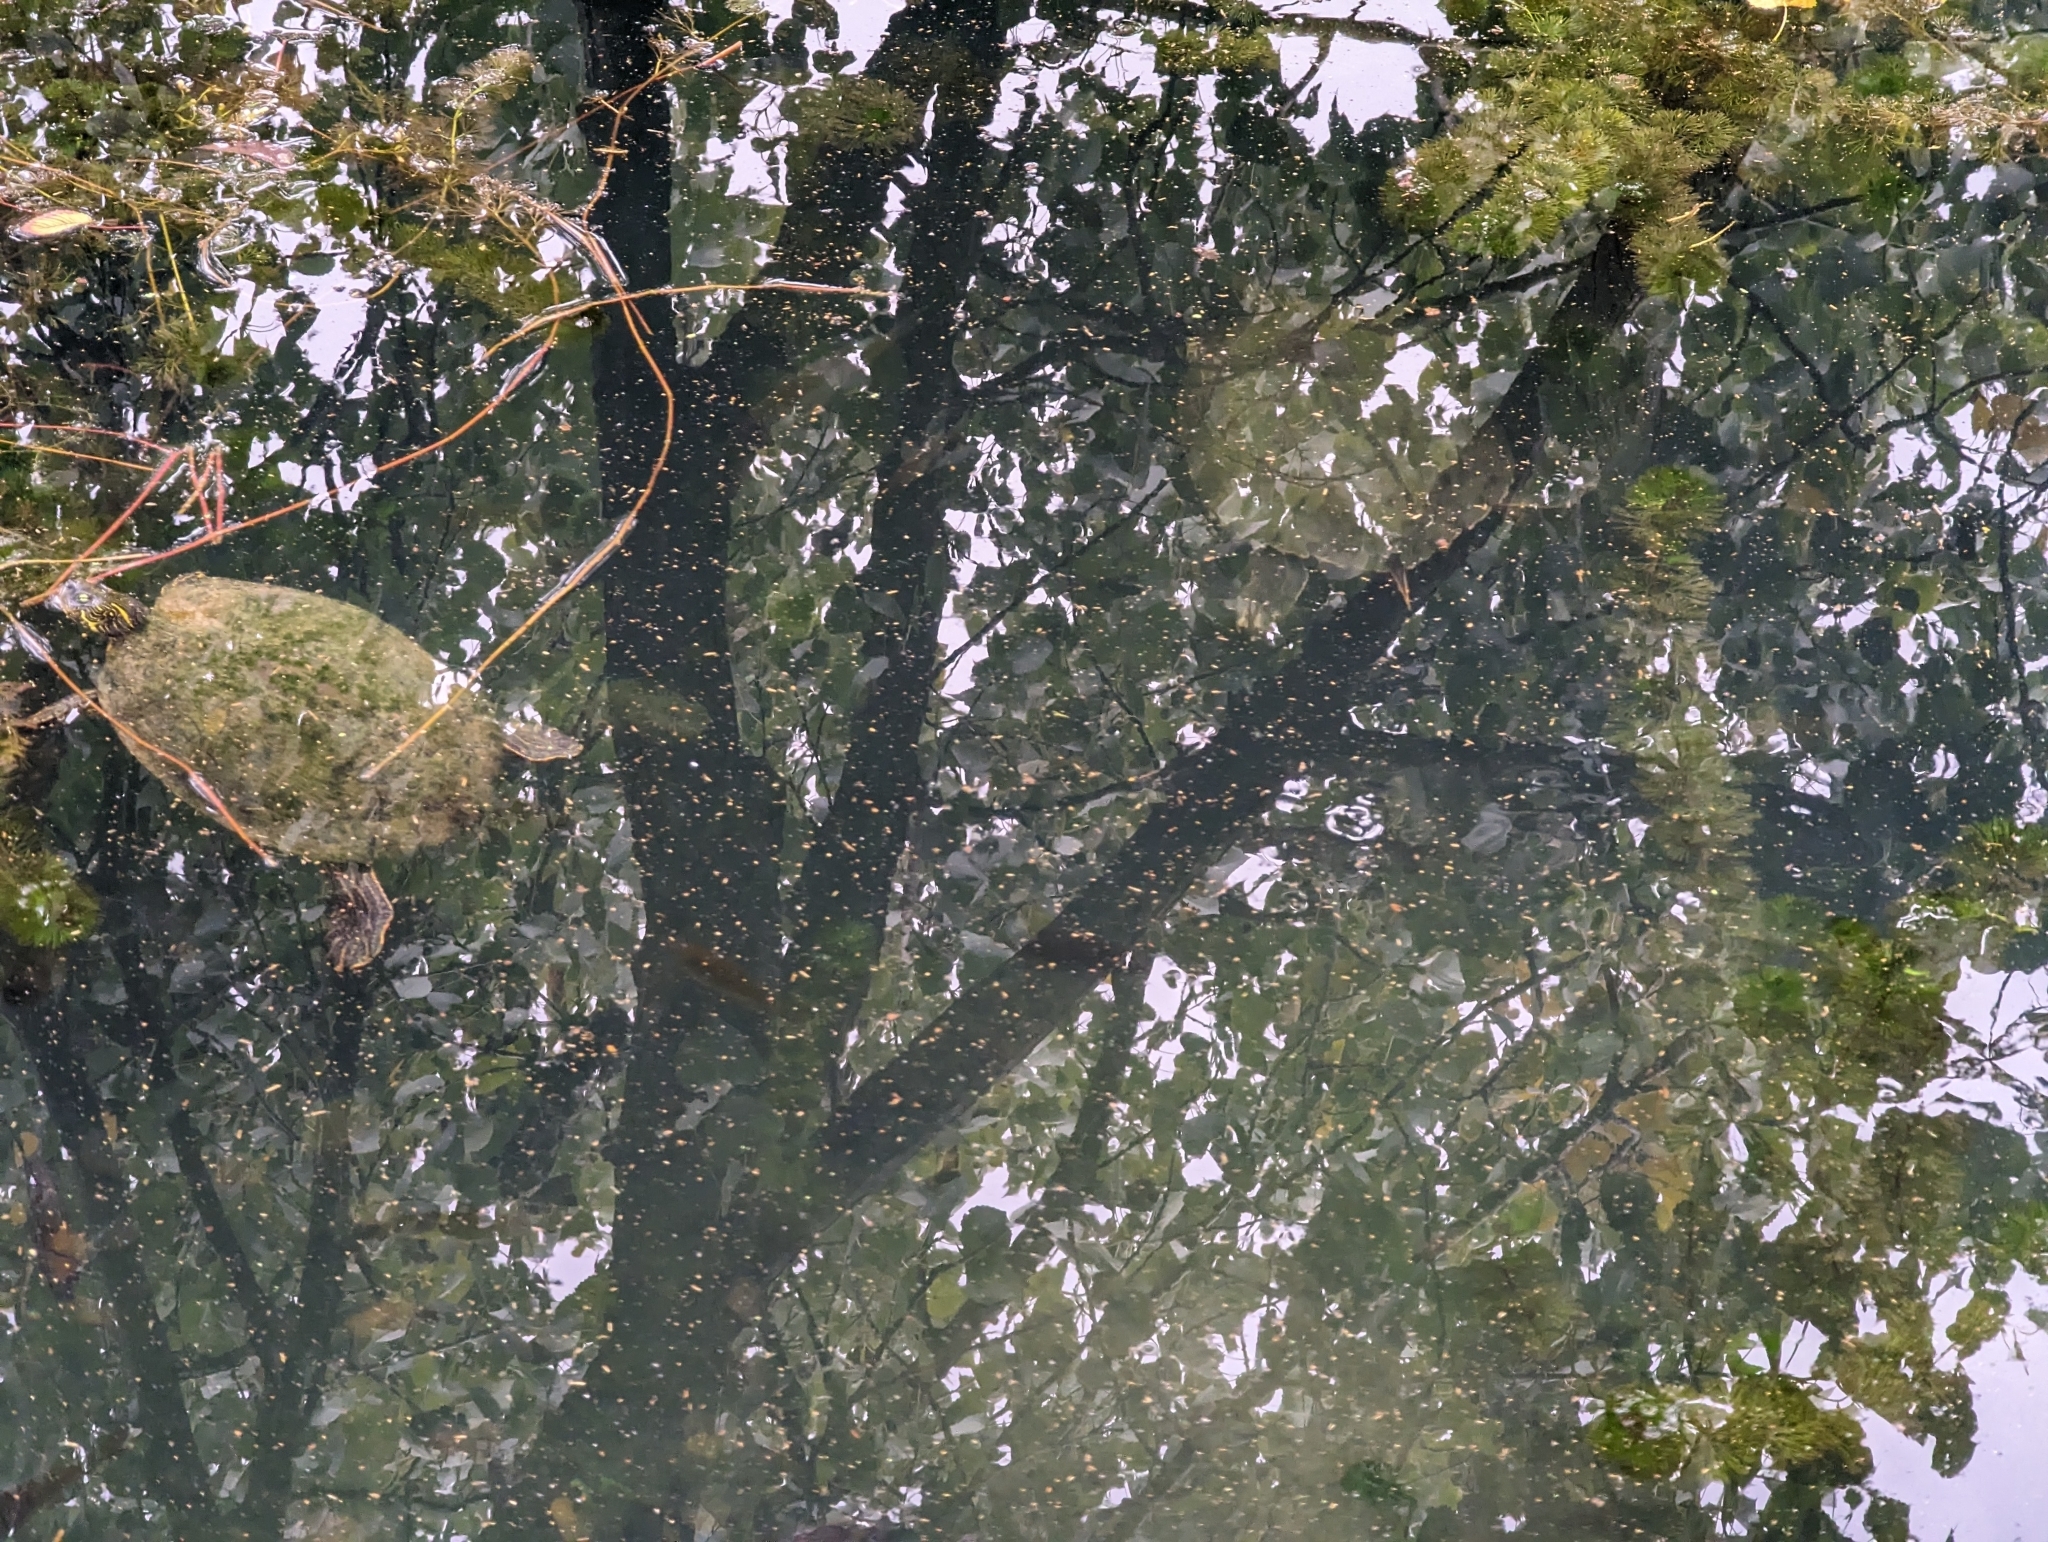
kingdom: Animalia
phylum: Chordata
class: Testudines
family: Emydidae
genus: Pseudemys
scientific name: Pseudemys texana
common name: Texas river cooter
